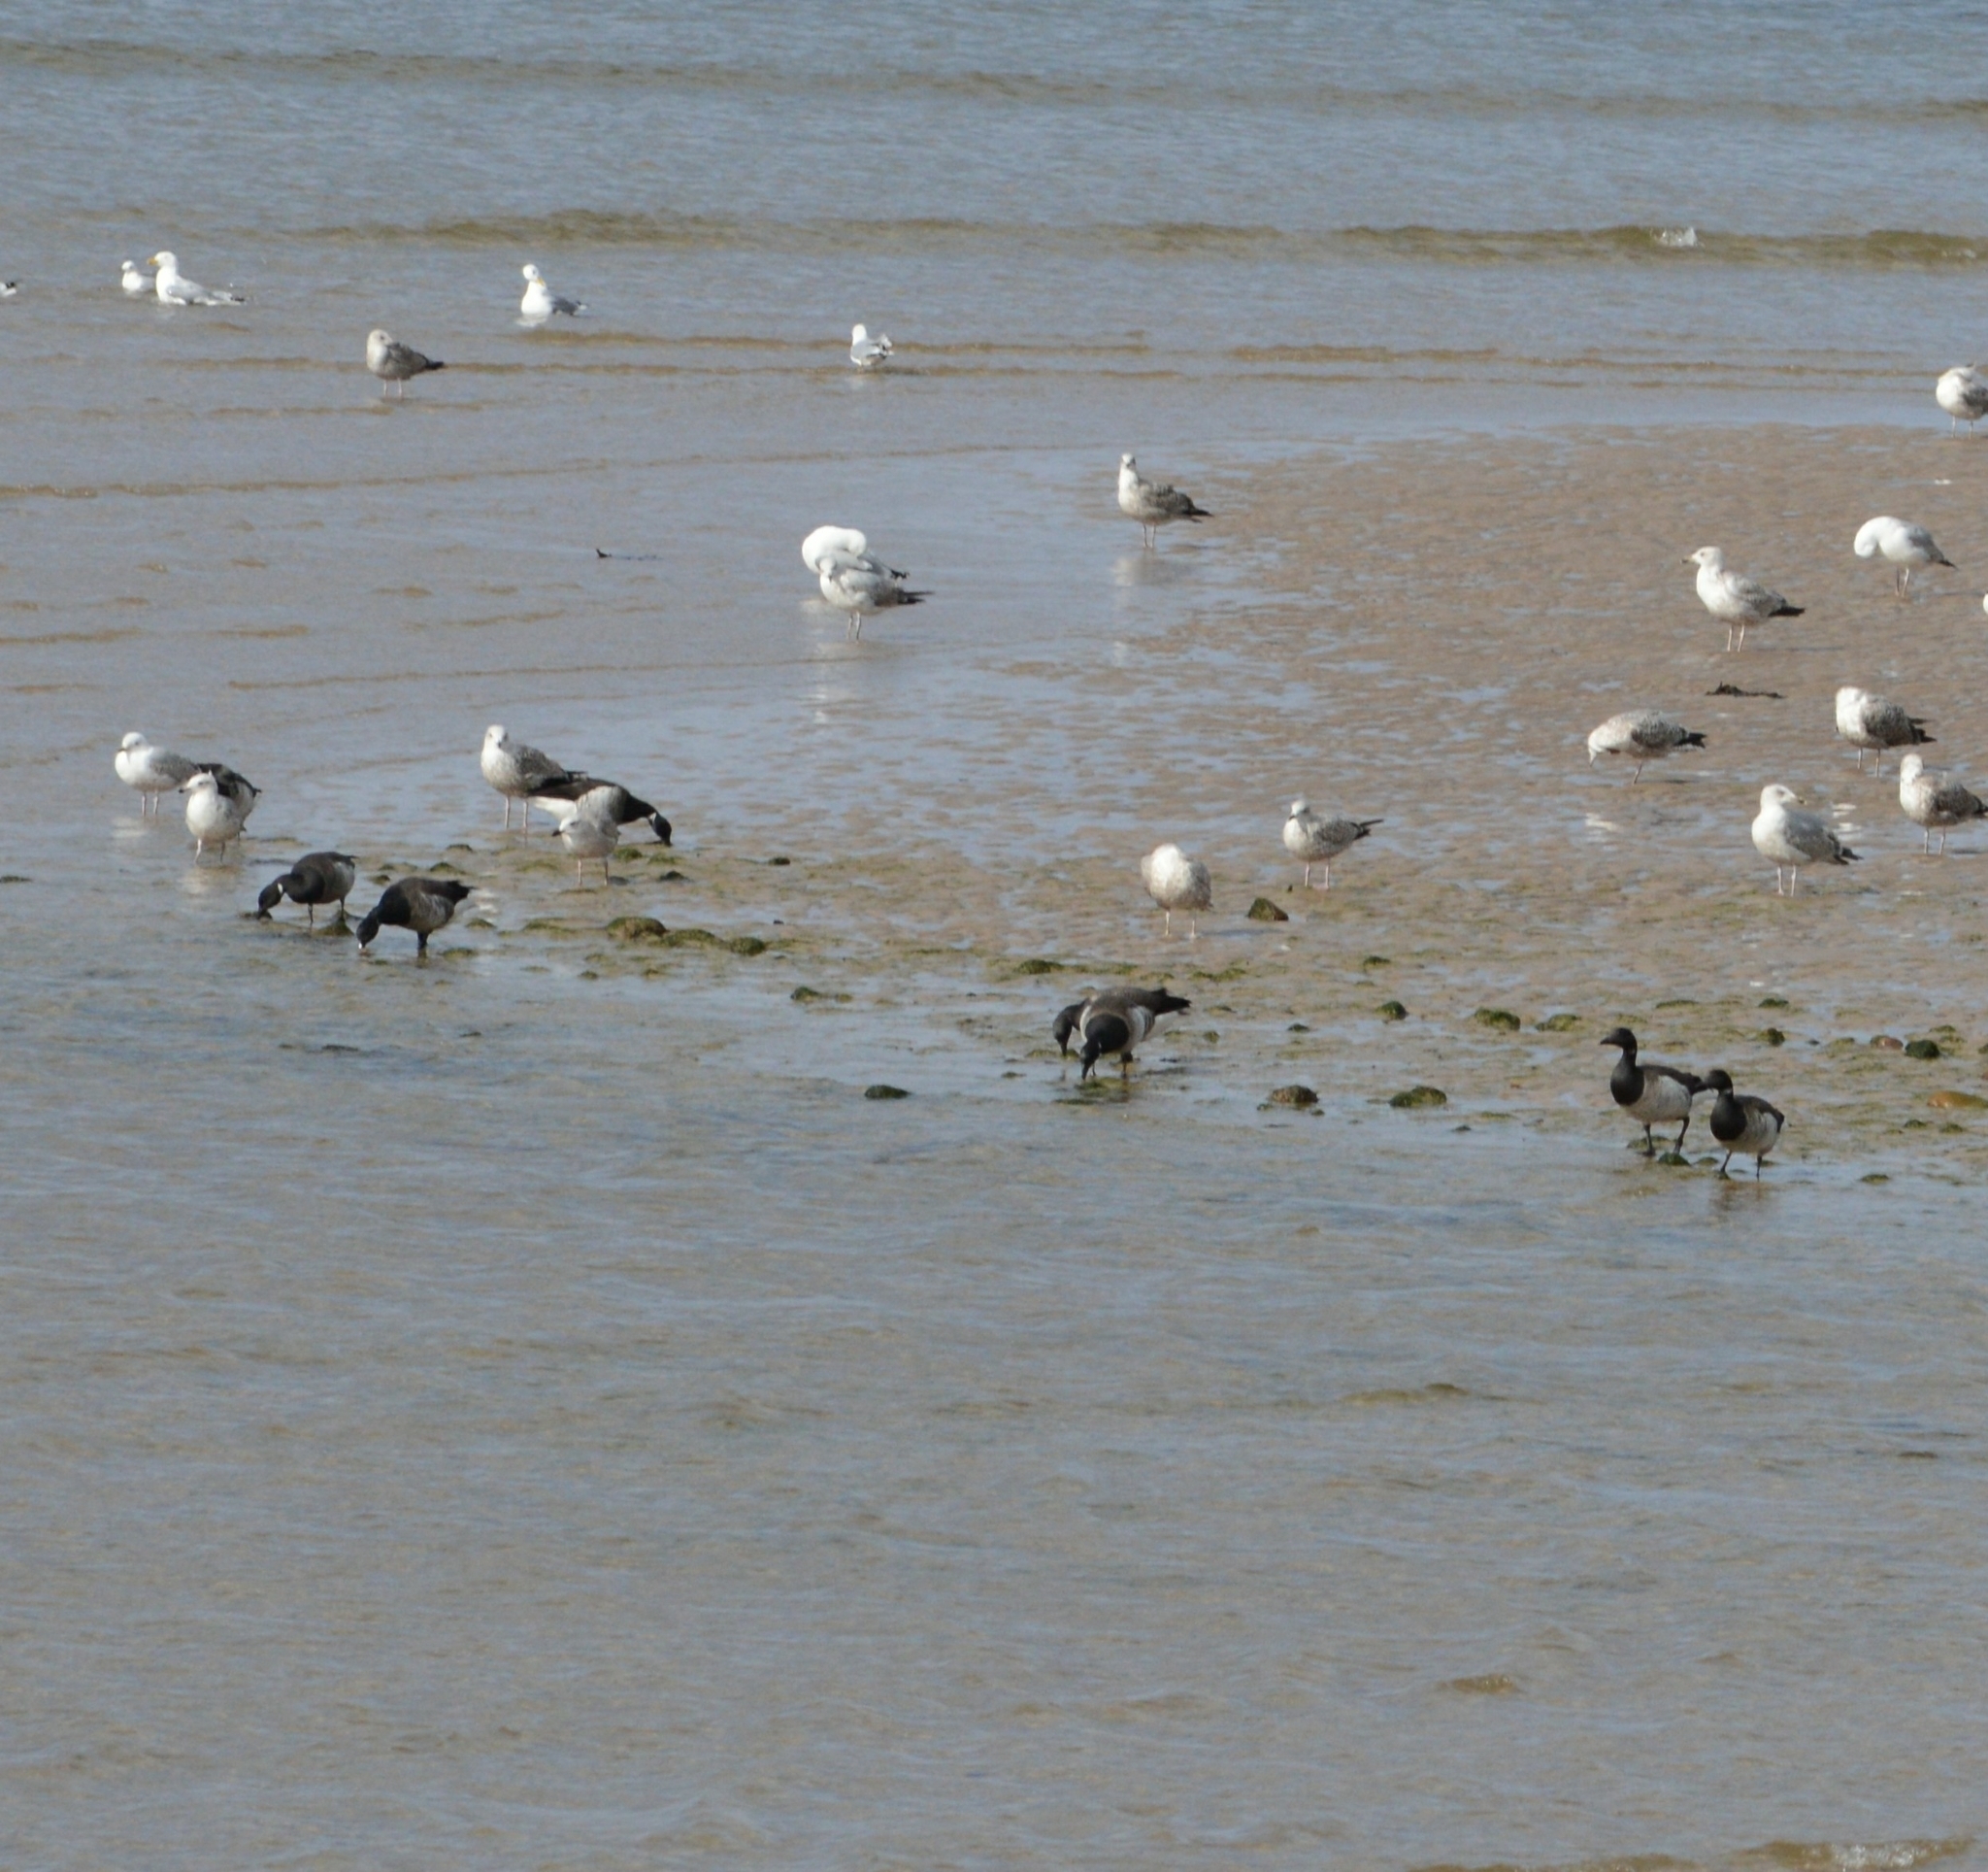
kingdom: Animalia
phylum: Chordata
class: Aves
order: Anseriformes
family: Anatidae
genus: Branta
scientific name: Branta bernicla
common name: Brant goose
